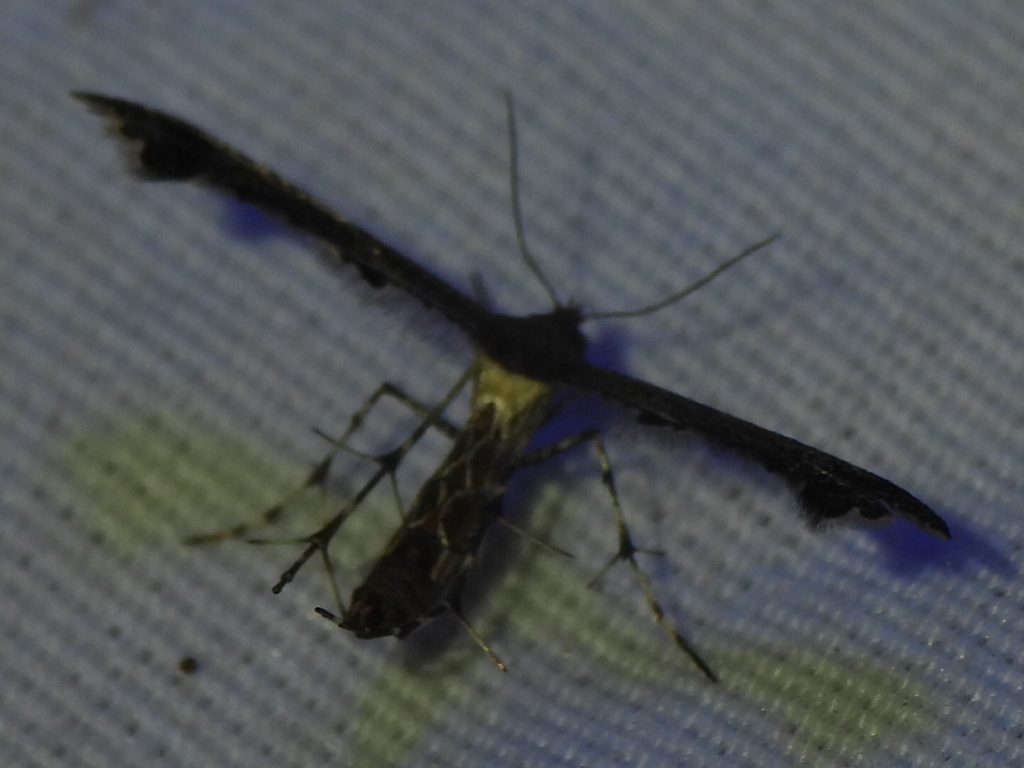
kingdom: Animalia
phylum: Arthropoda
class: Insecta
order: Lepidoptera
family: Pterophoridae
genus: Michaelophorus
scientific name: Michaelophorus indentatus
